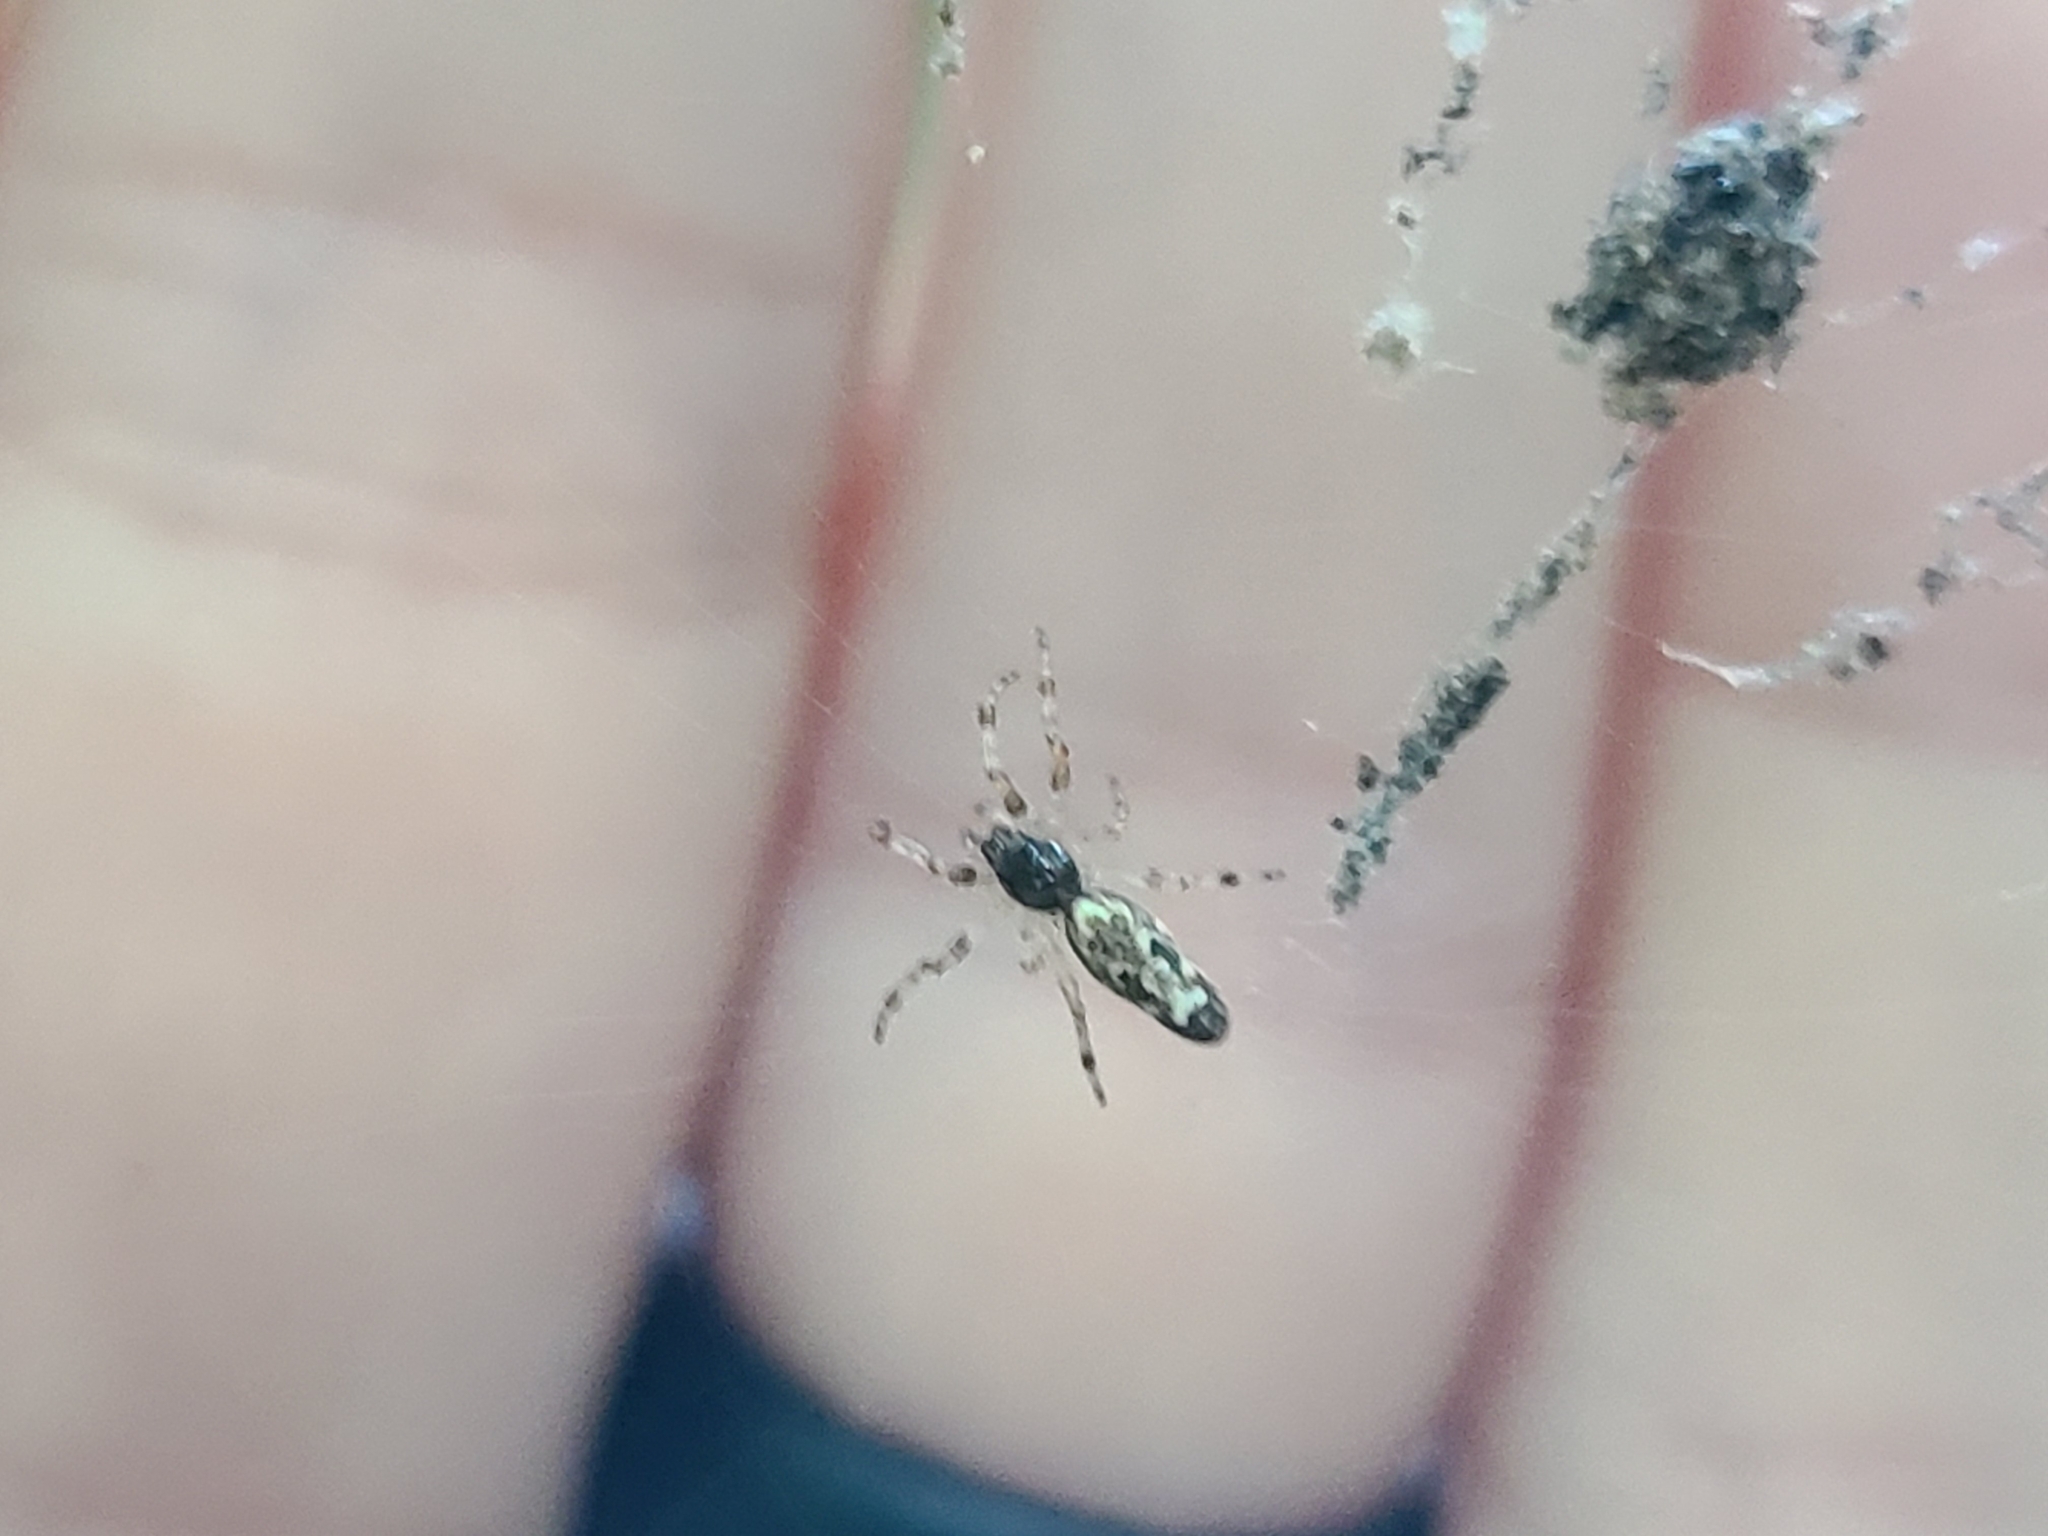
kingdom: Animalia
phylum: Arthropoda
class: Arachnida
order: Araneae
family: Araneidae
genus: Cyclosa
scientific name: Cyclosa caroli
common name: Orb weavers
